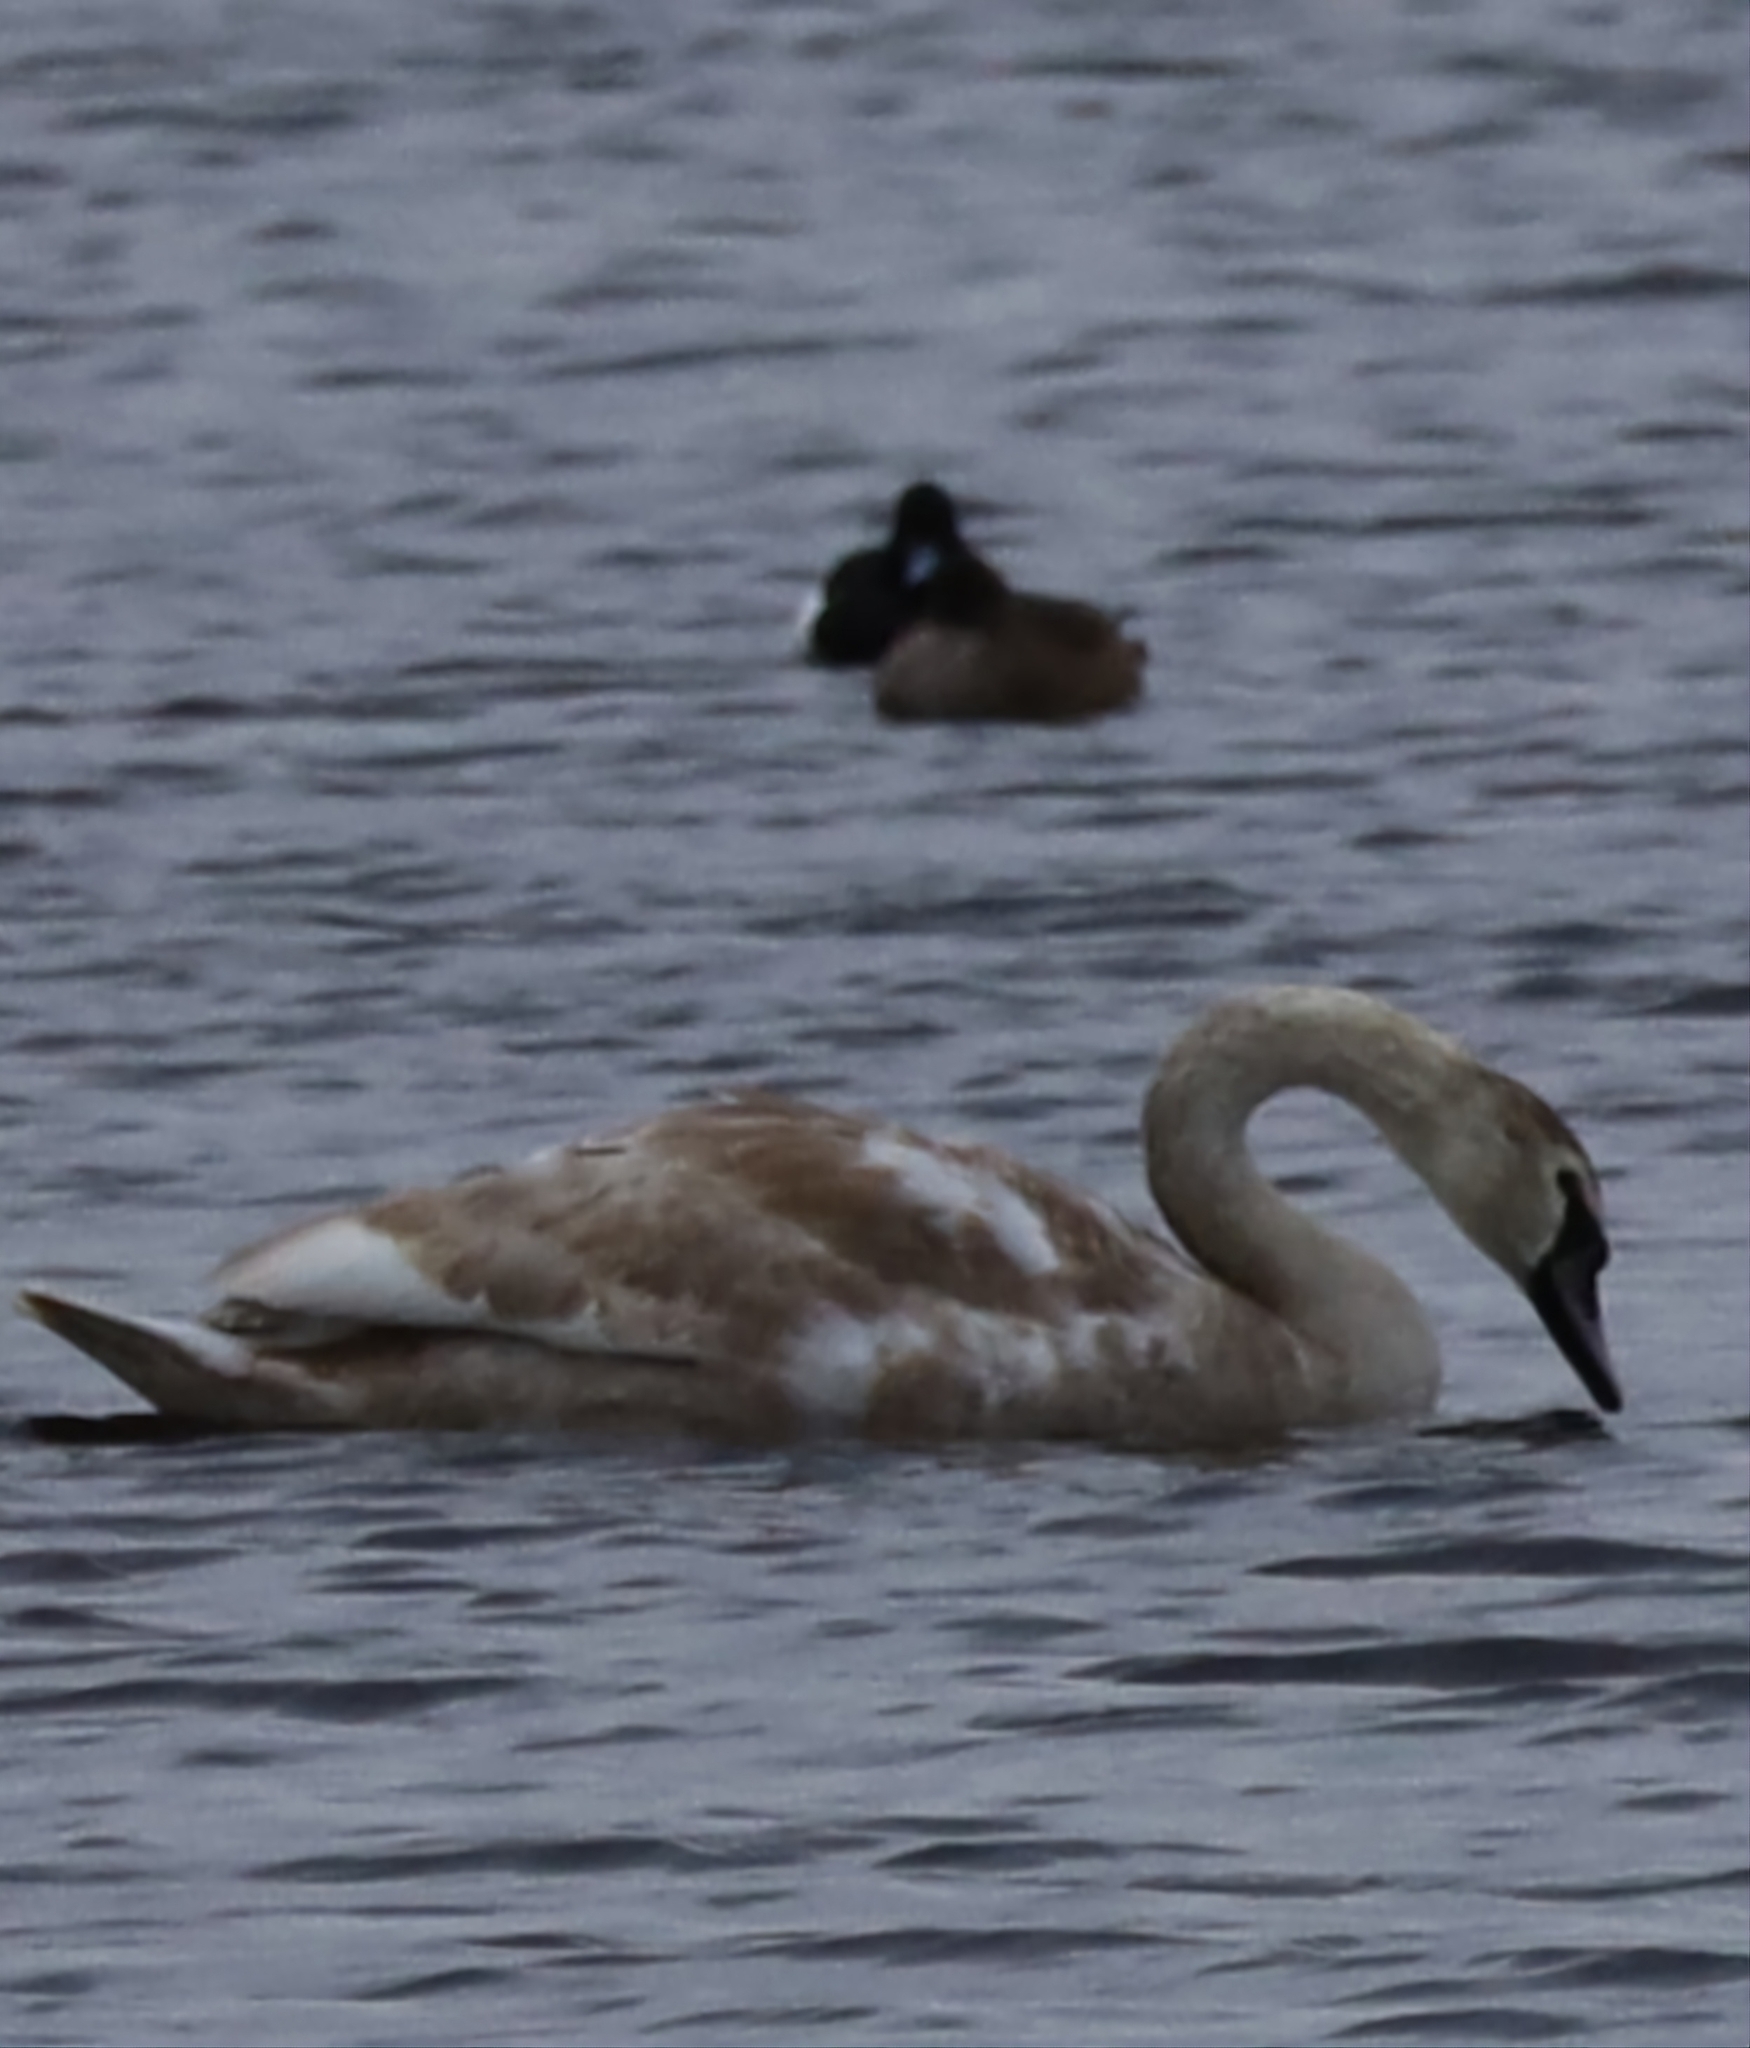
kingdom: Animalia
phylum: Chordata
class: Aves
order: Anseriformes
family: Anatidae
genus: Cygnus
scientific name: Cygnus olor
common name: Mute swan
